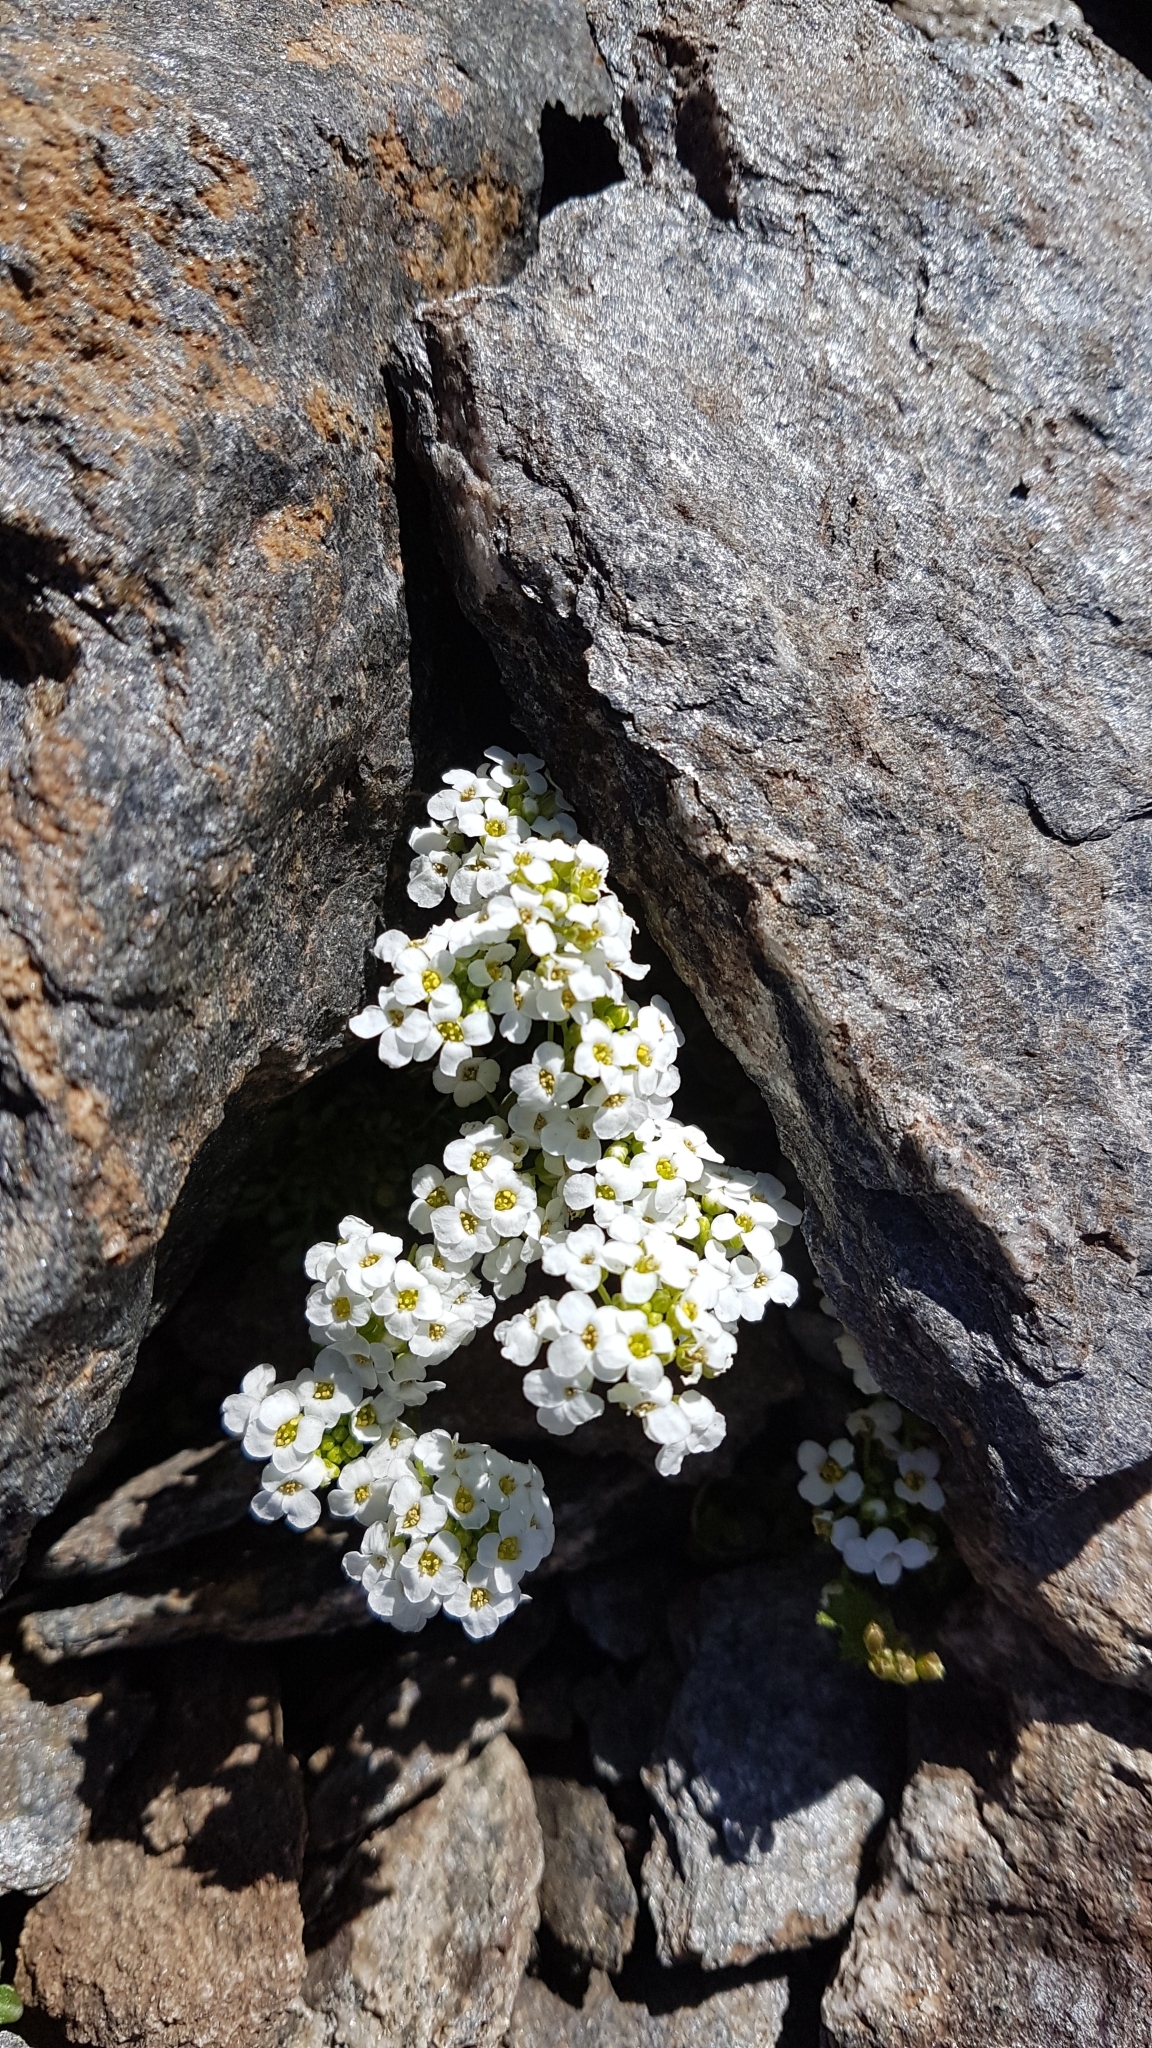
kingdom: Plantae
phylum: Tracheophyta
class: Magnoliopsida
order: Brassicales
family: Brassicaceae
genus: Hornungia
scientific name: Hornungia alpina
